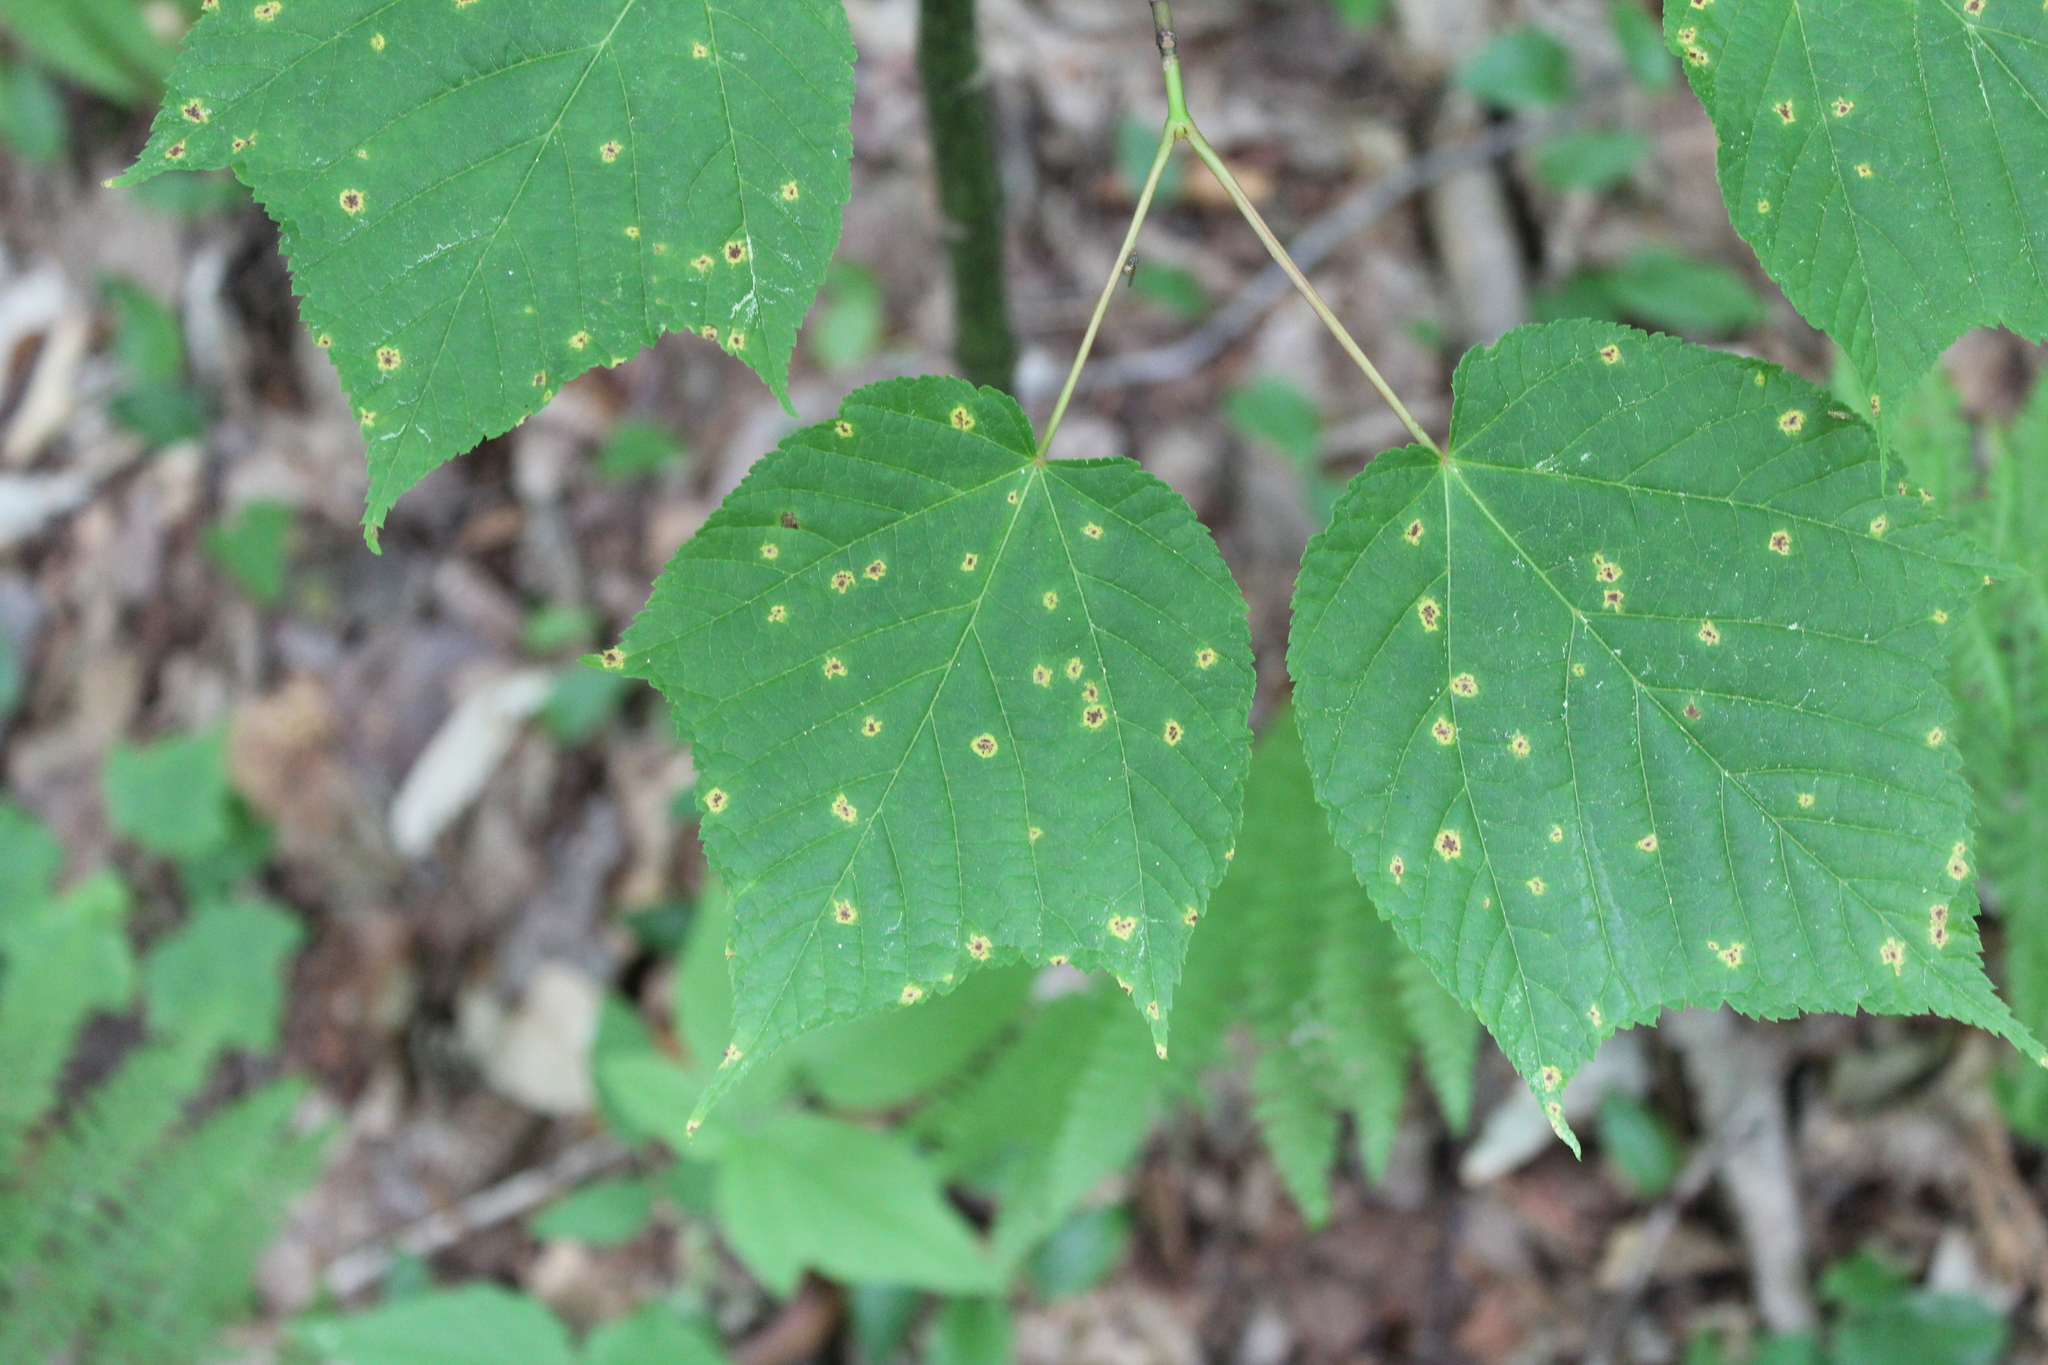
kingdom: Plantae
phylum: Tracheophyta
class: Magnoliopsida
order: Sapindales
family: Sapindaceae
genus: Acer
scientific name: Acer pensylvanicum
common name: Moosewood
